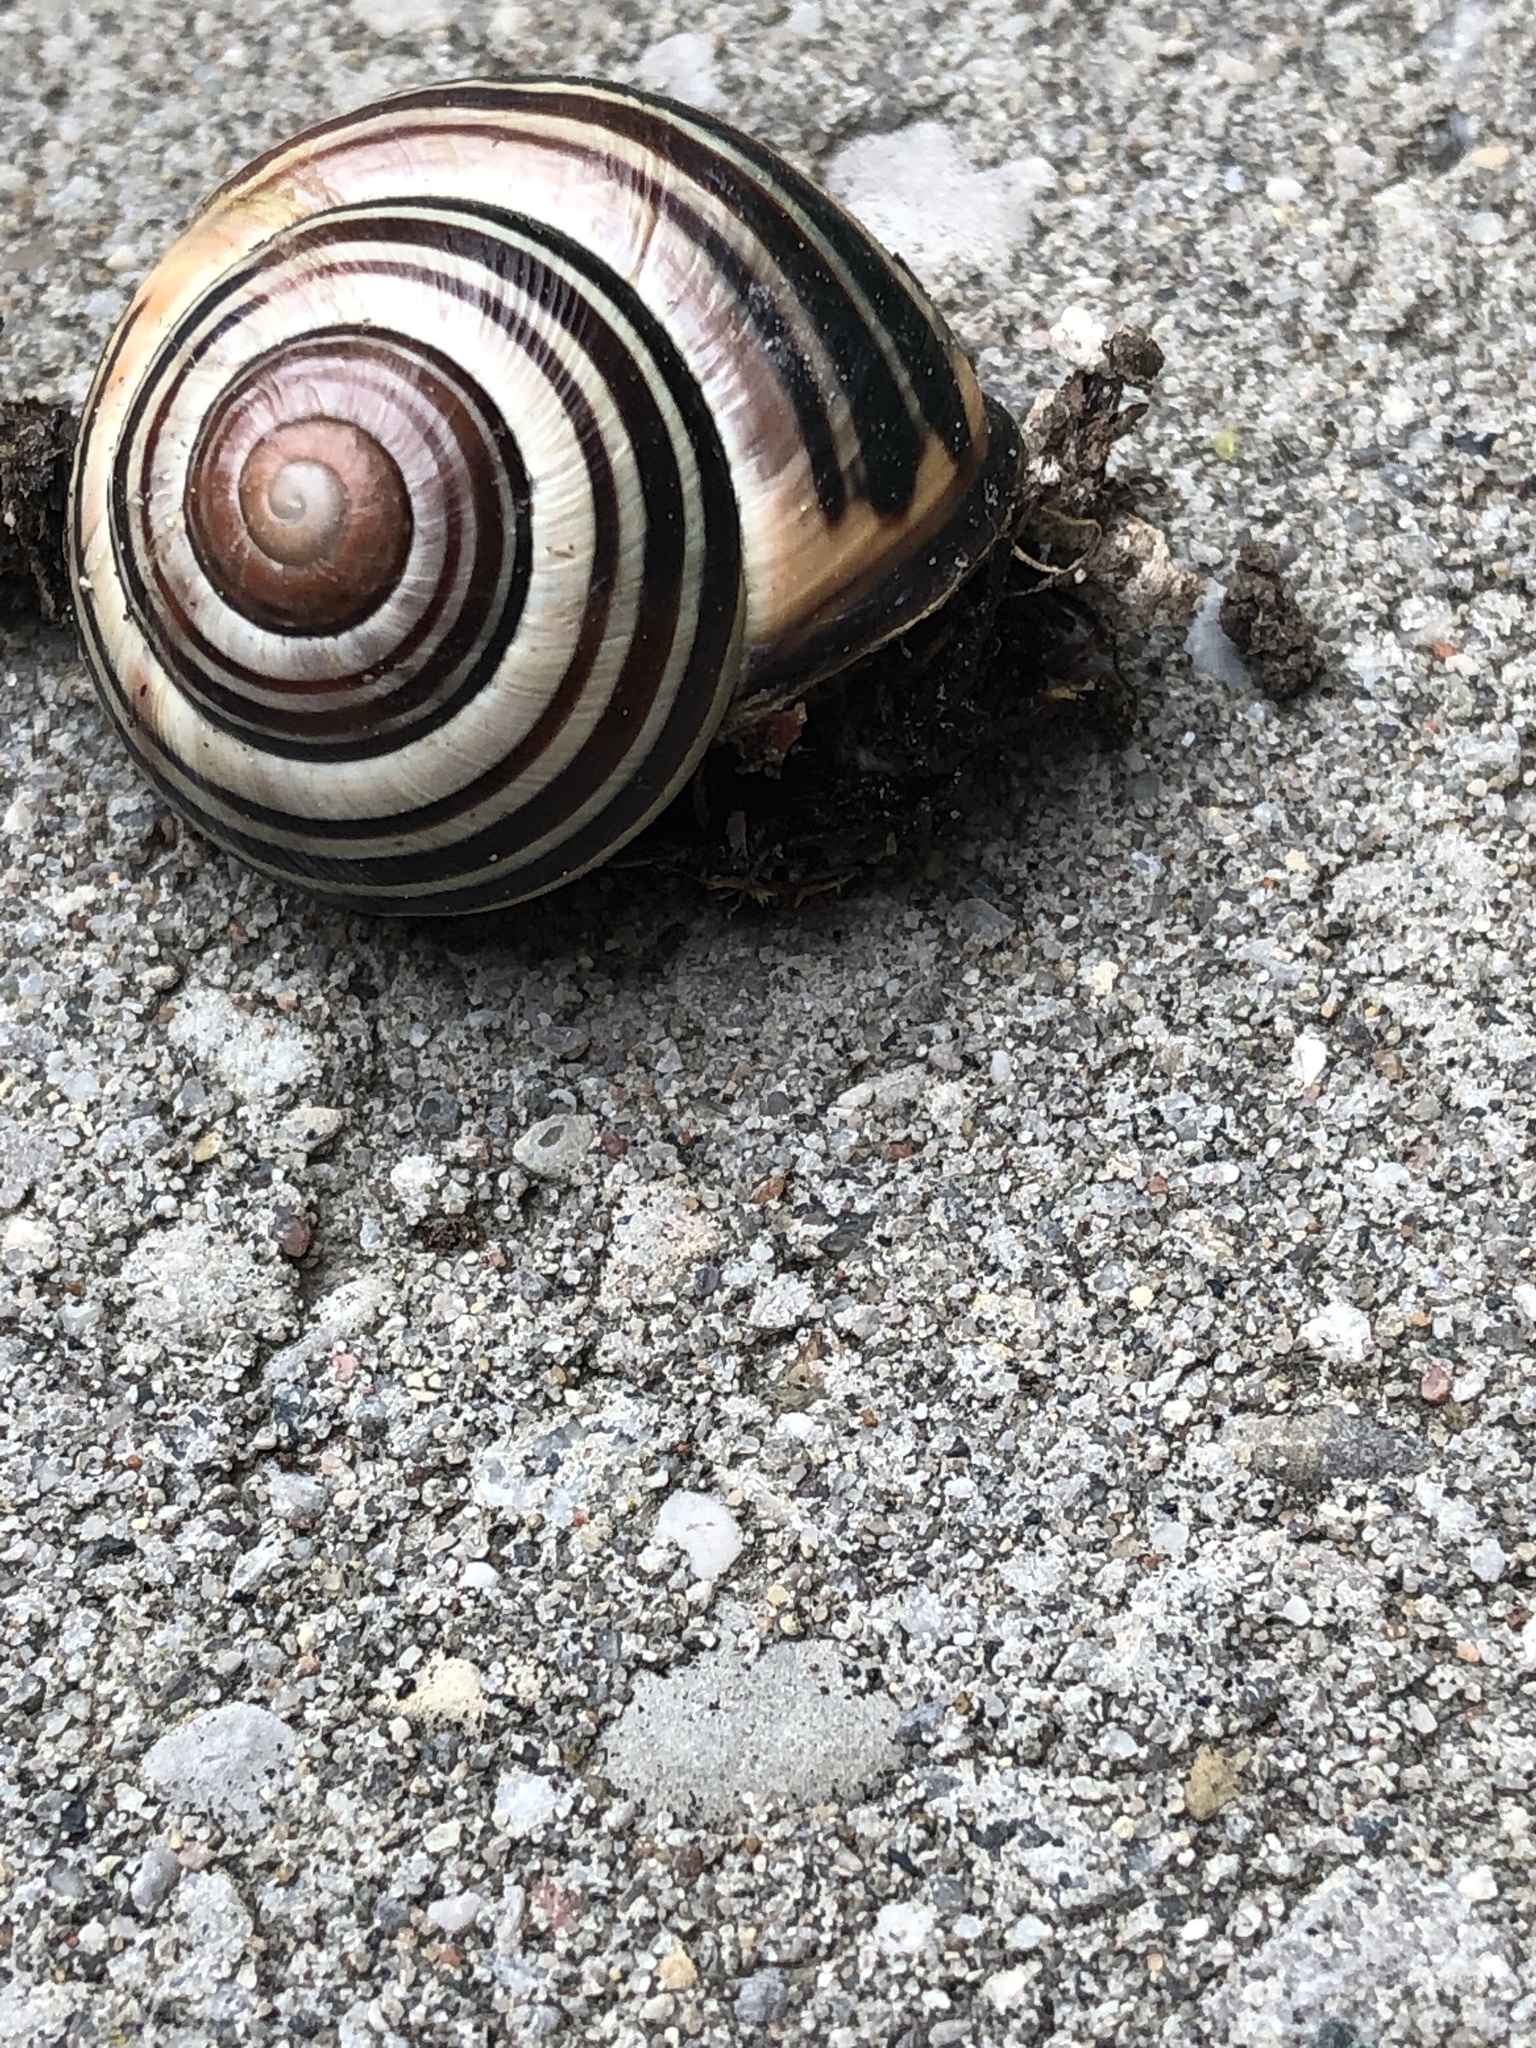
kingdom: Animalia
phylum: Mollusca
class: Gastropoda
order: Stylommatophora
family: Helicidae
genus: Cepaea
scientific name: Cepaea nemoralis
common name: Grovesnail
